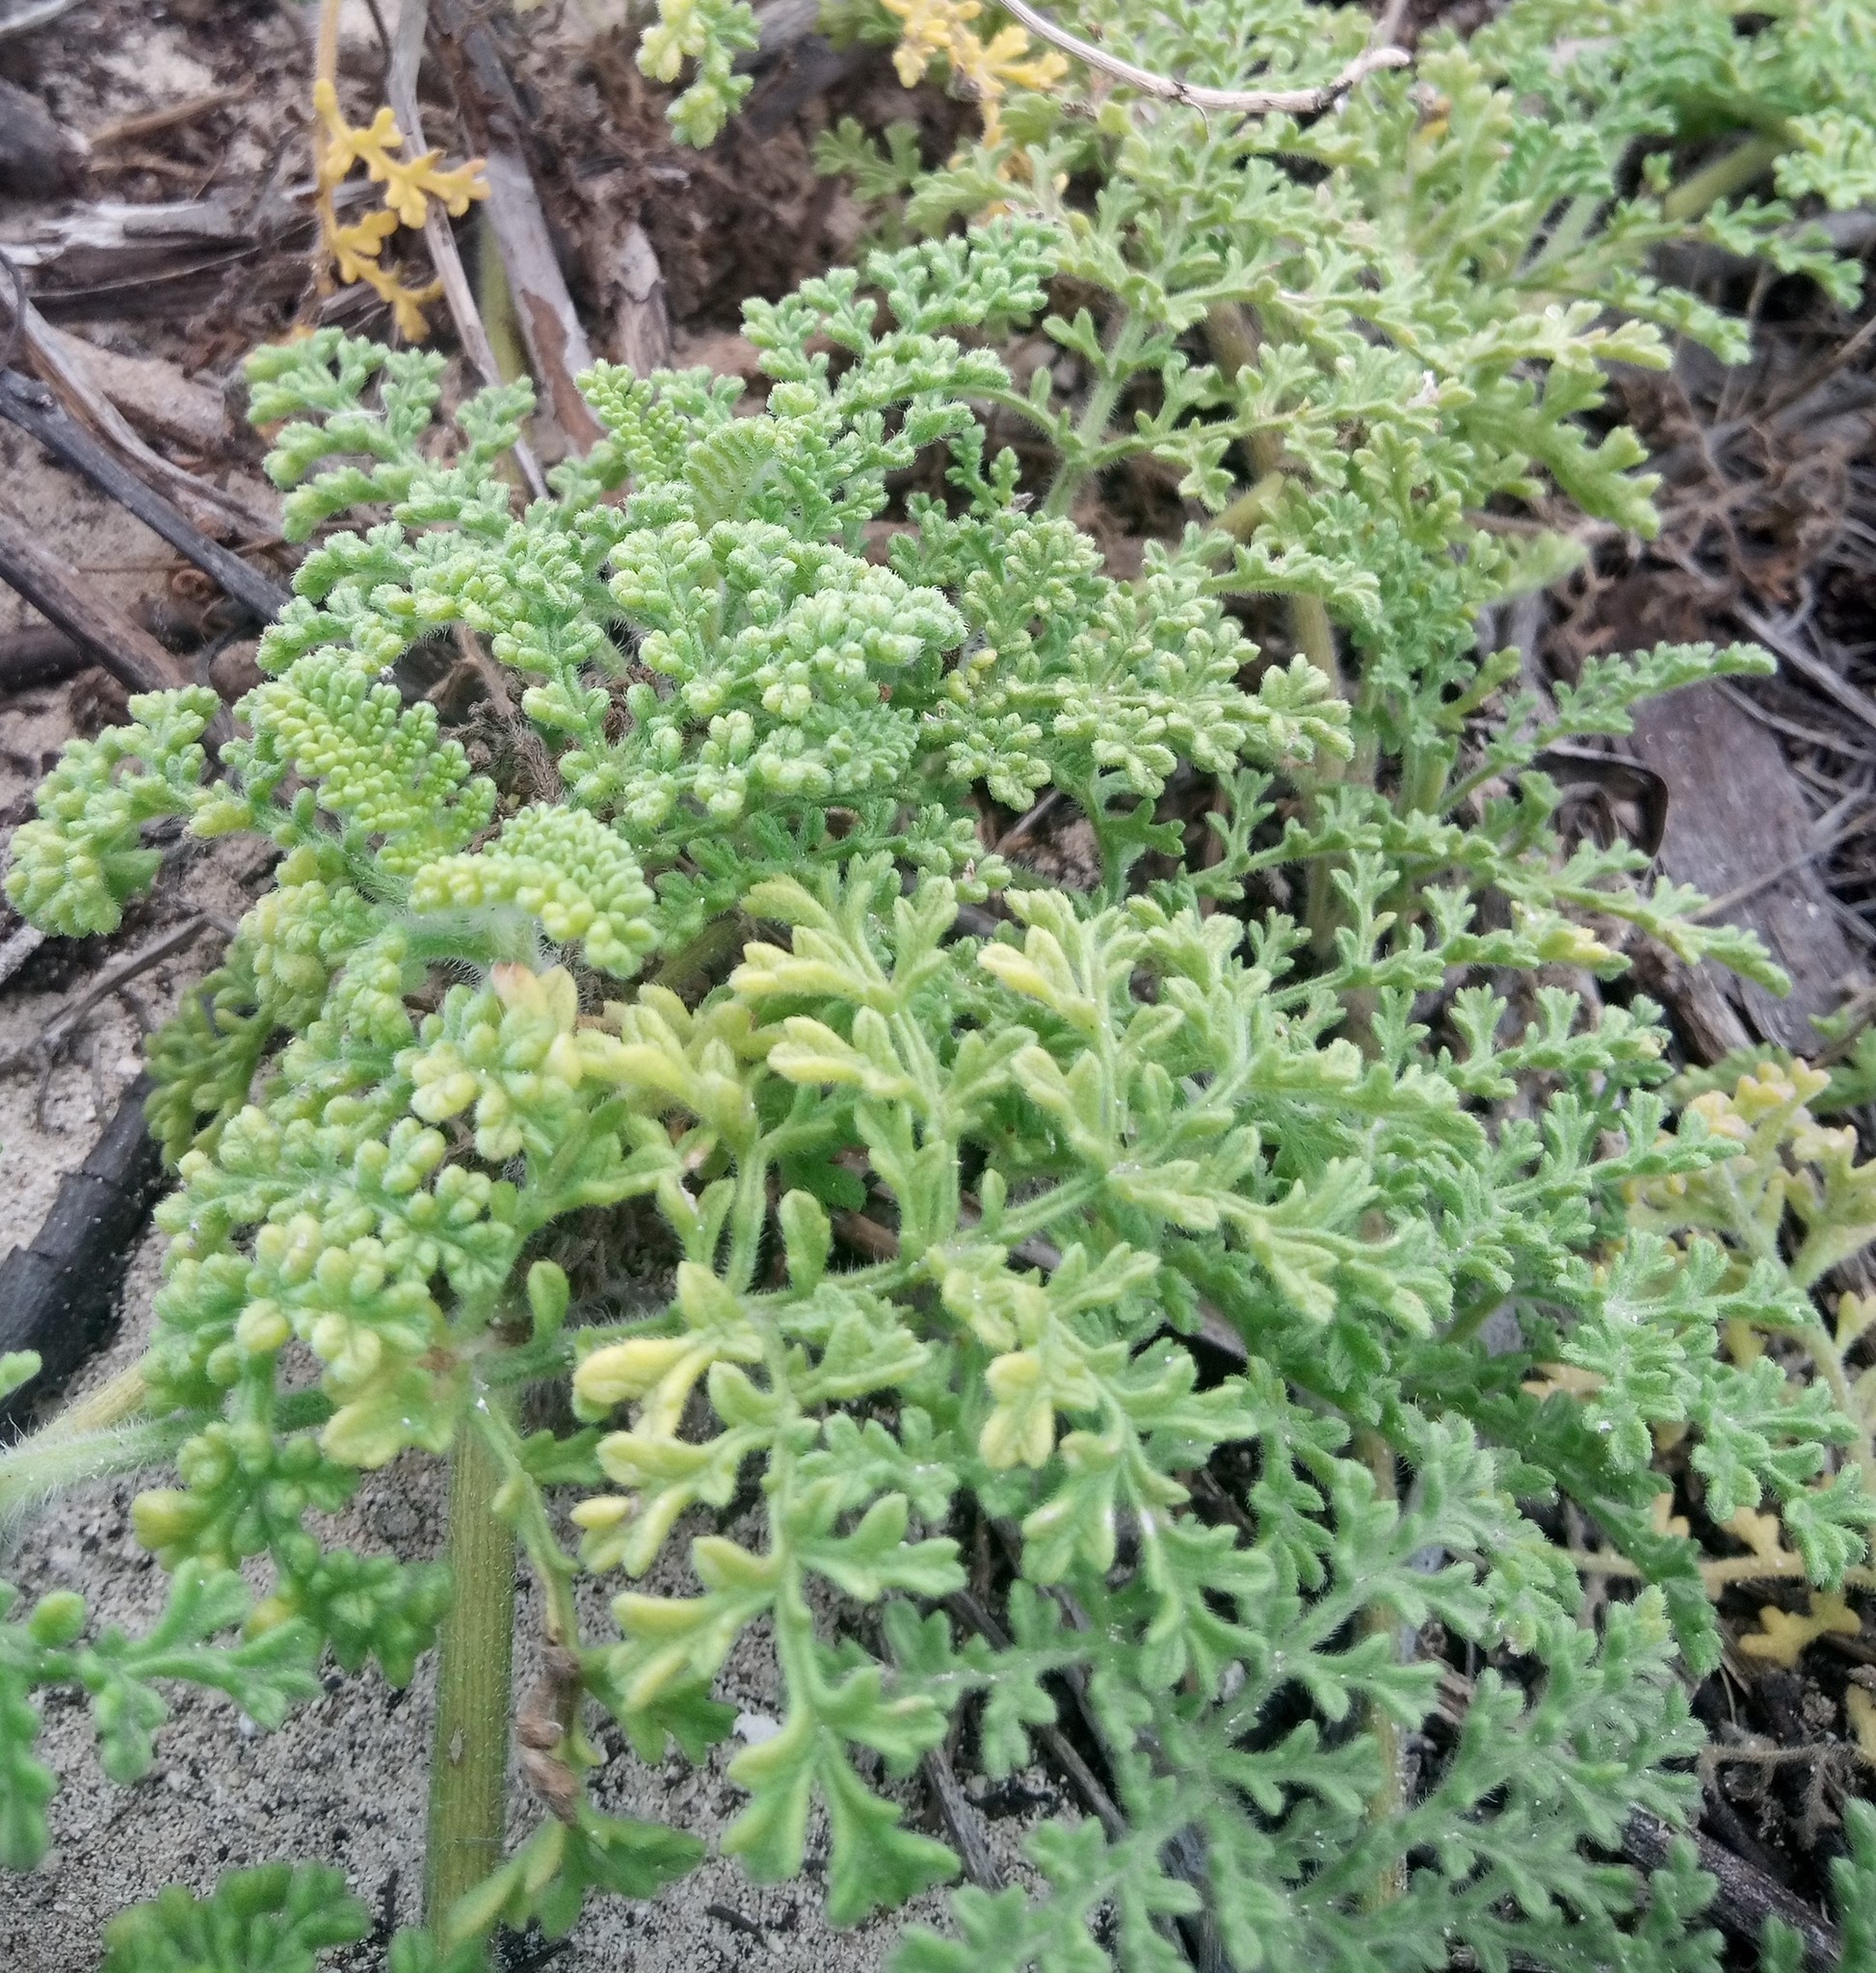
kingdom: Plantae
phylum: Tracheophyta
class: Magnoliopsida
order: Asterales
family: Asteraceae
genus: Ambrosia
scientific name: Ambrosia hispida
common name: Coastal ragweed
